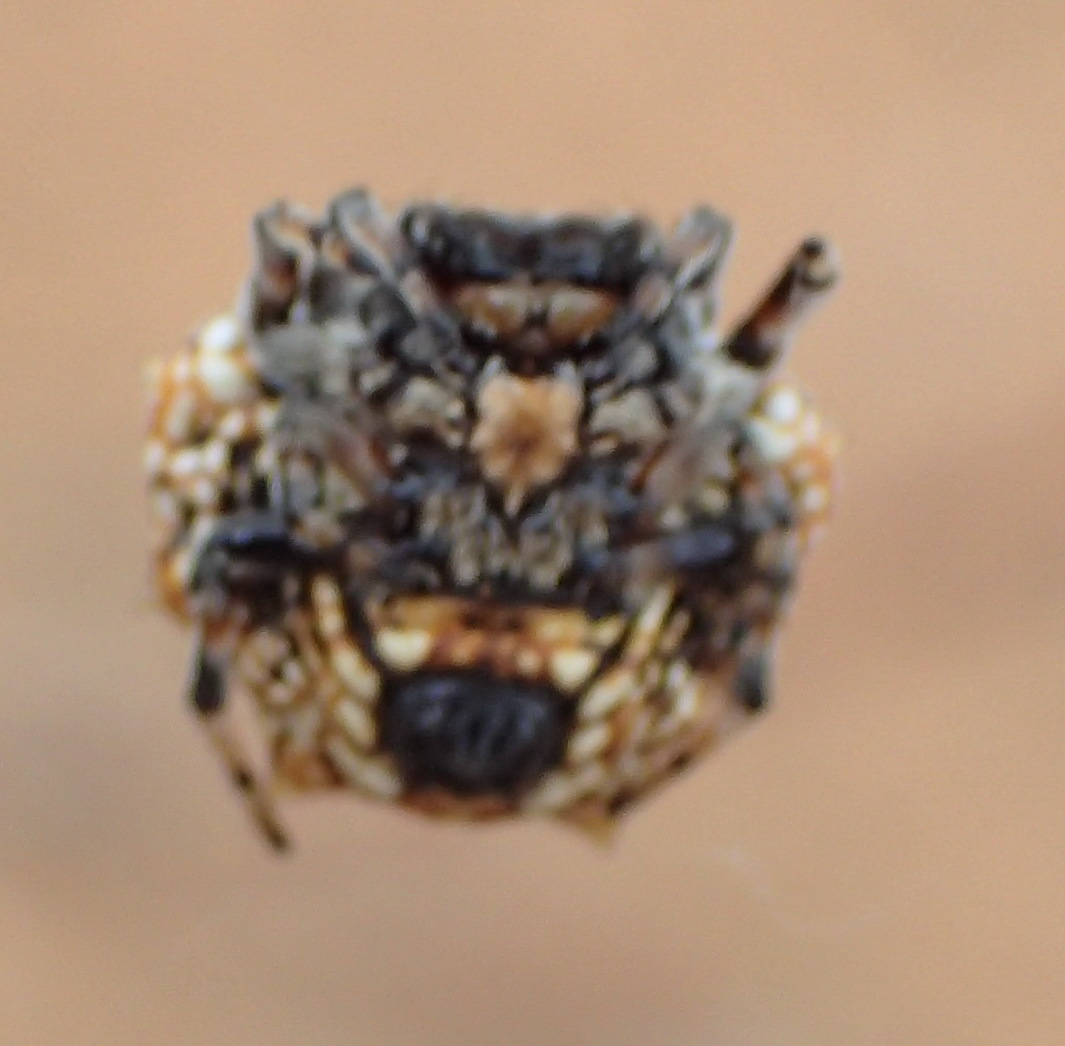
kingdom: Animalia
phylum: Arthropoda
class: Arachnida
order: Araneae
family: Araneidae
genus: Isoxya
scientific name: Isoxya mossamedensis
